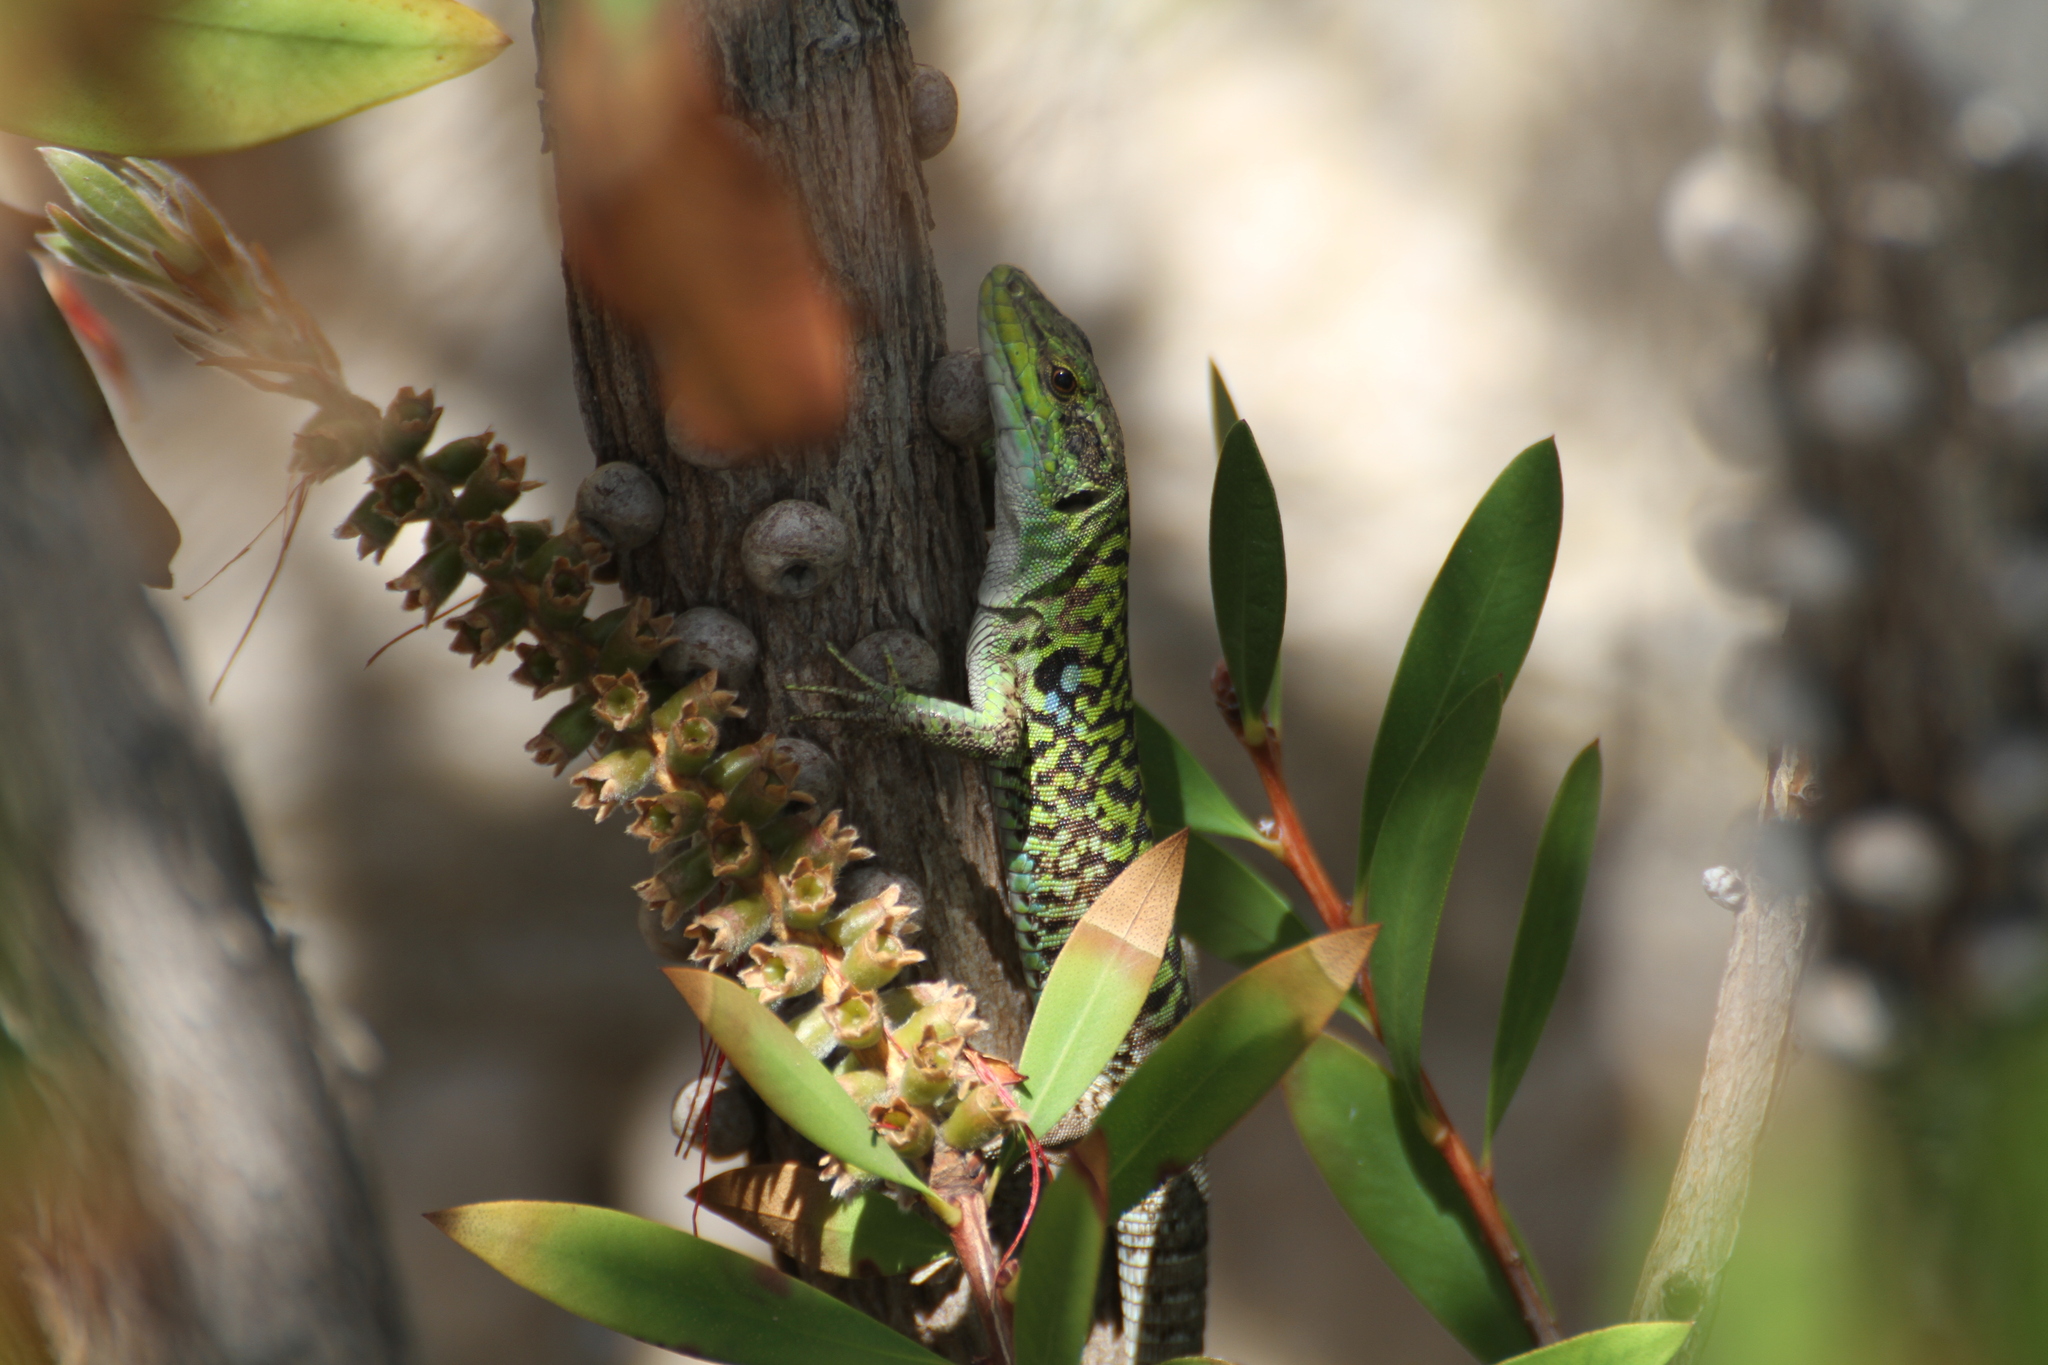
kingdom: Animalia
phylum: Chordata
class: Squamata
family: Lacertidae
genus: Podarcis
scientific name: Podarcis siculus
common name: Italian wall lizard
